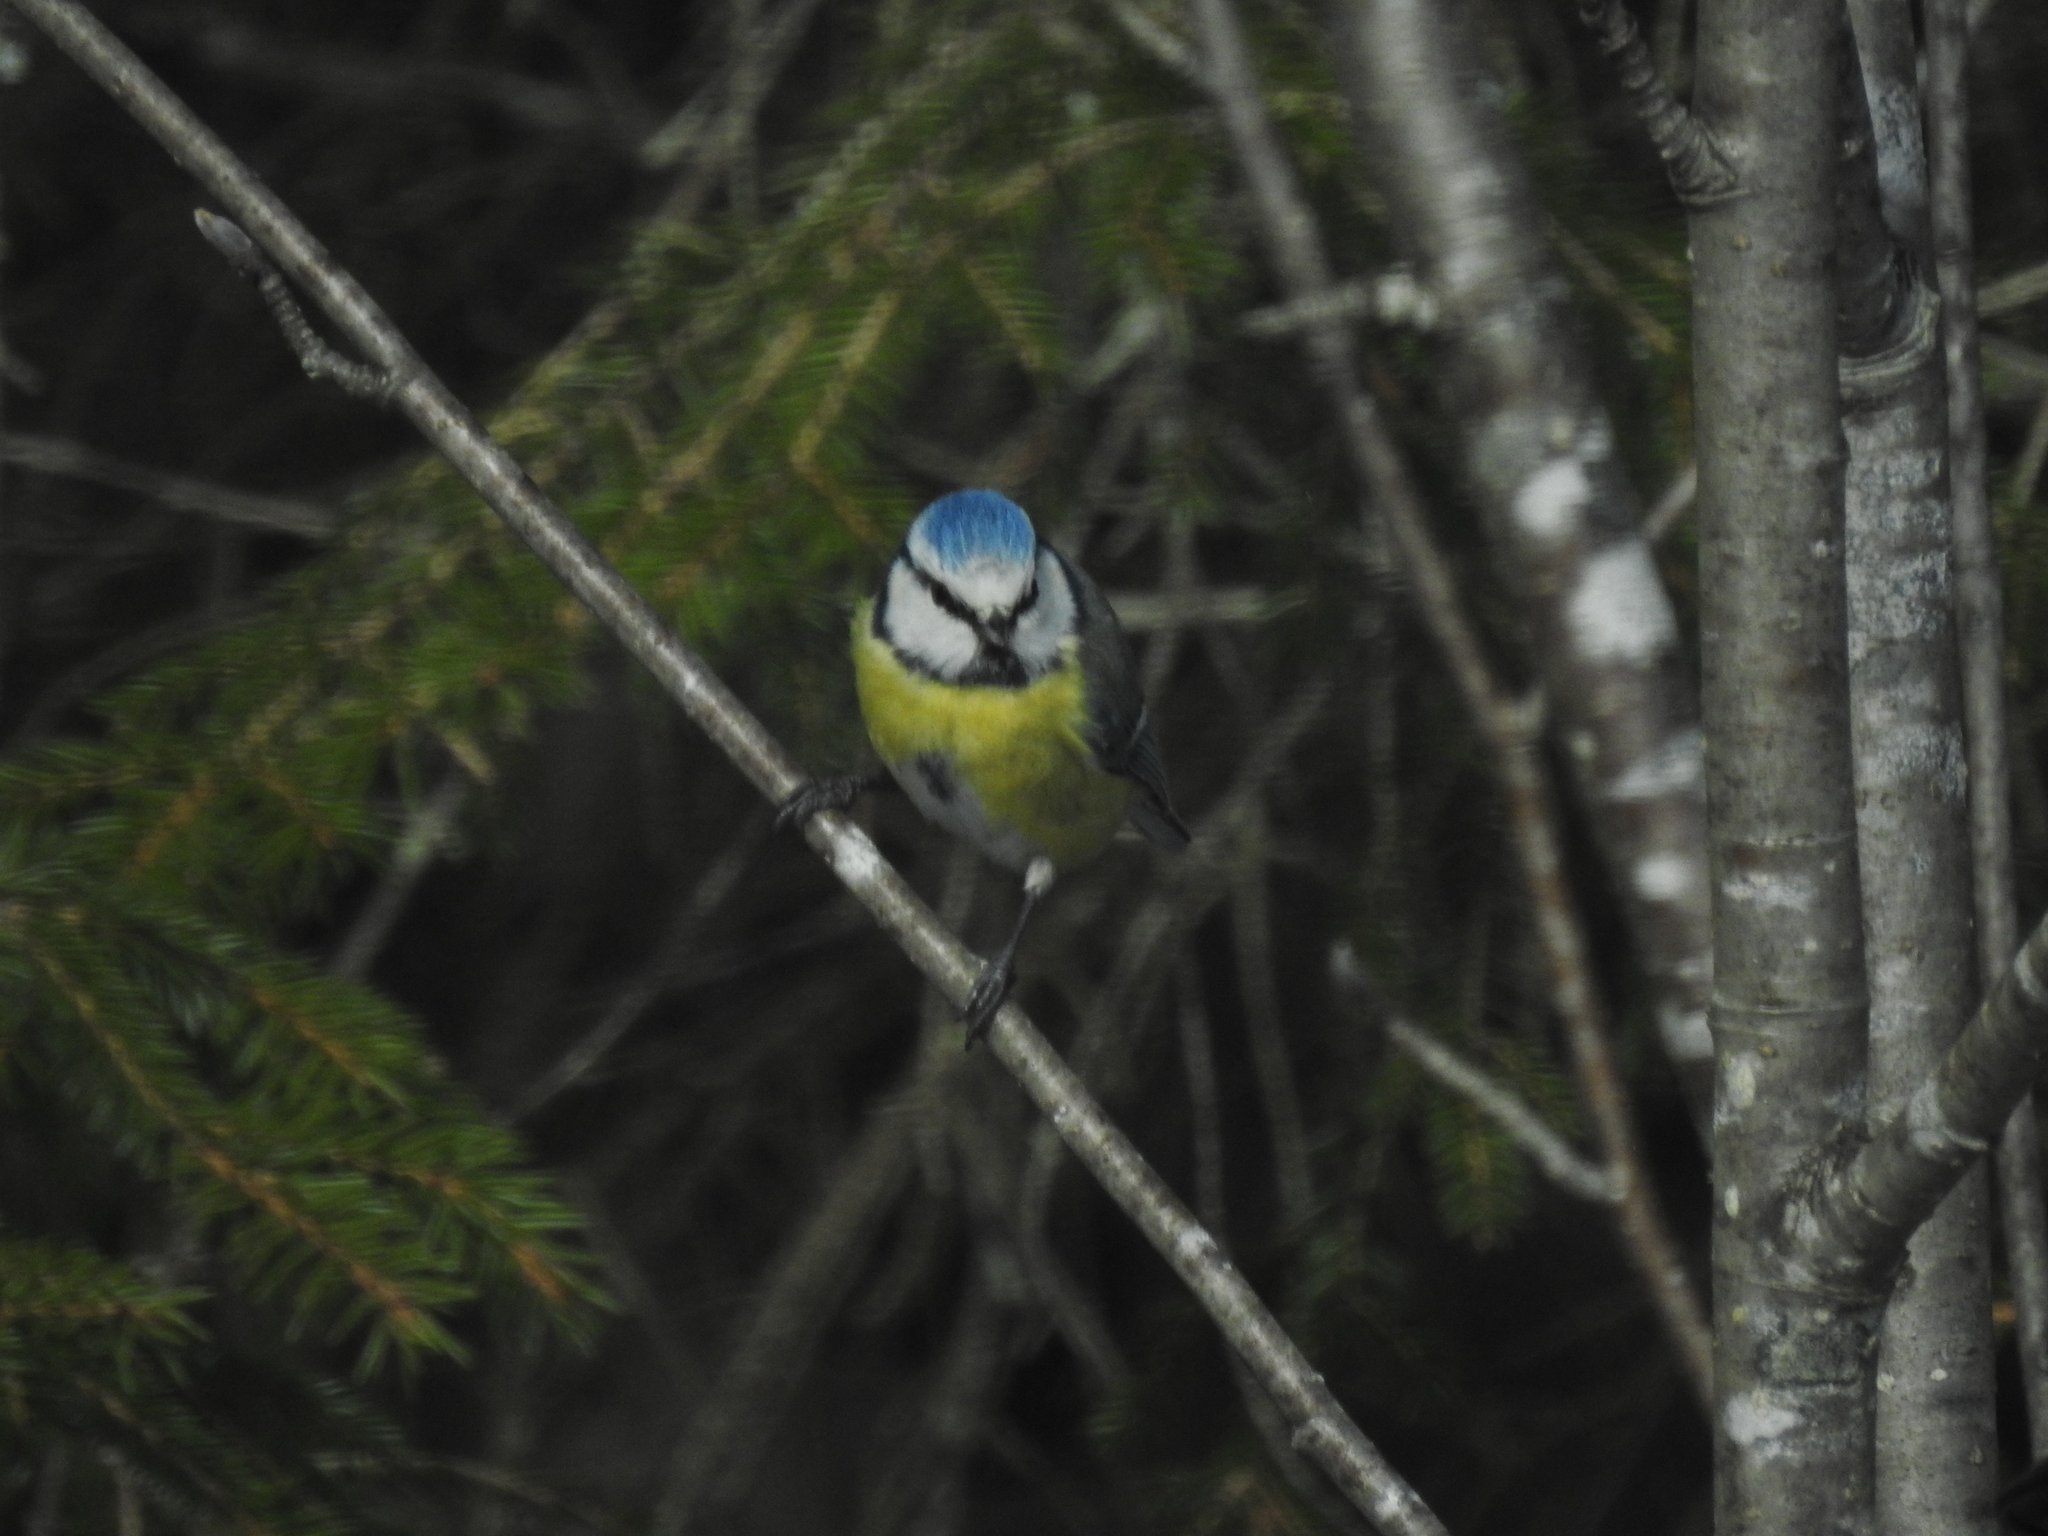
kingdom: Animalia
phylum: Chordata
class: Aves
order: Passeriformes
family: Paridae
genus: Cyanistes
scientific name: Cyanistes caeruleus
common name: Eurasian blue tit
